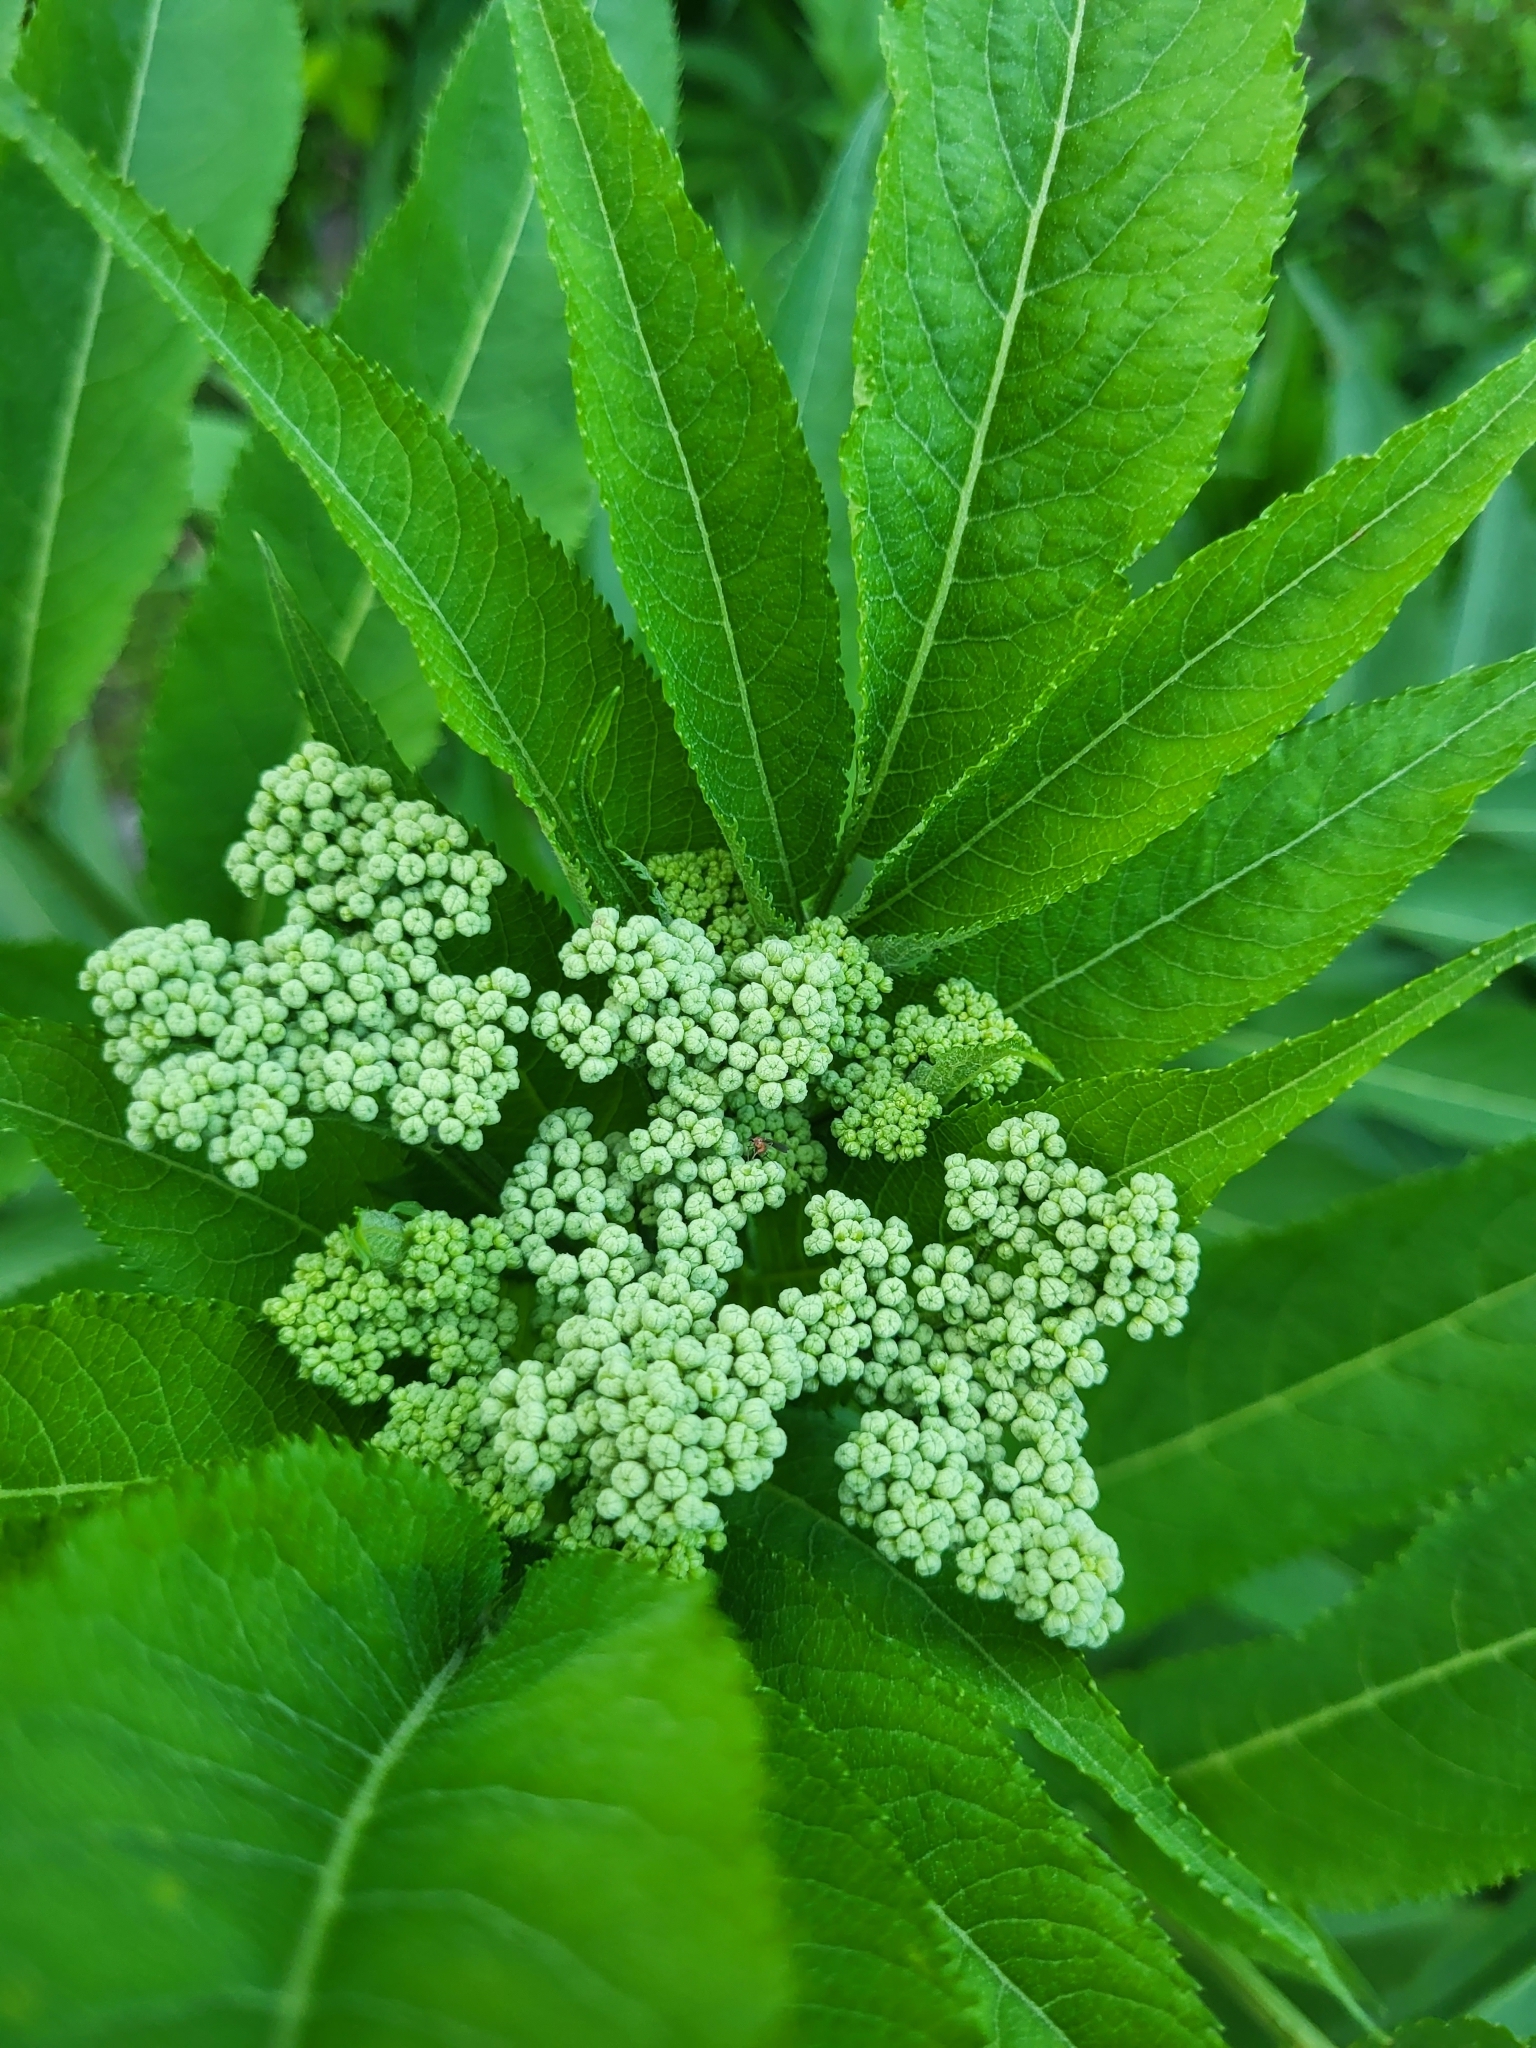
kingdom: Plantae
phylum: Tracheophyta
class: Magnoliopsida
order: Dipsacales
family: Viburnaceae
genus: Sambucus
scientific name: Sambucus ebulus
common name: Dwarf elder
